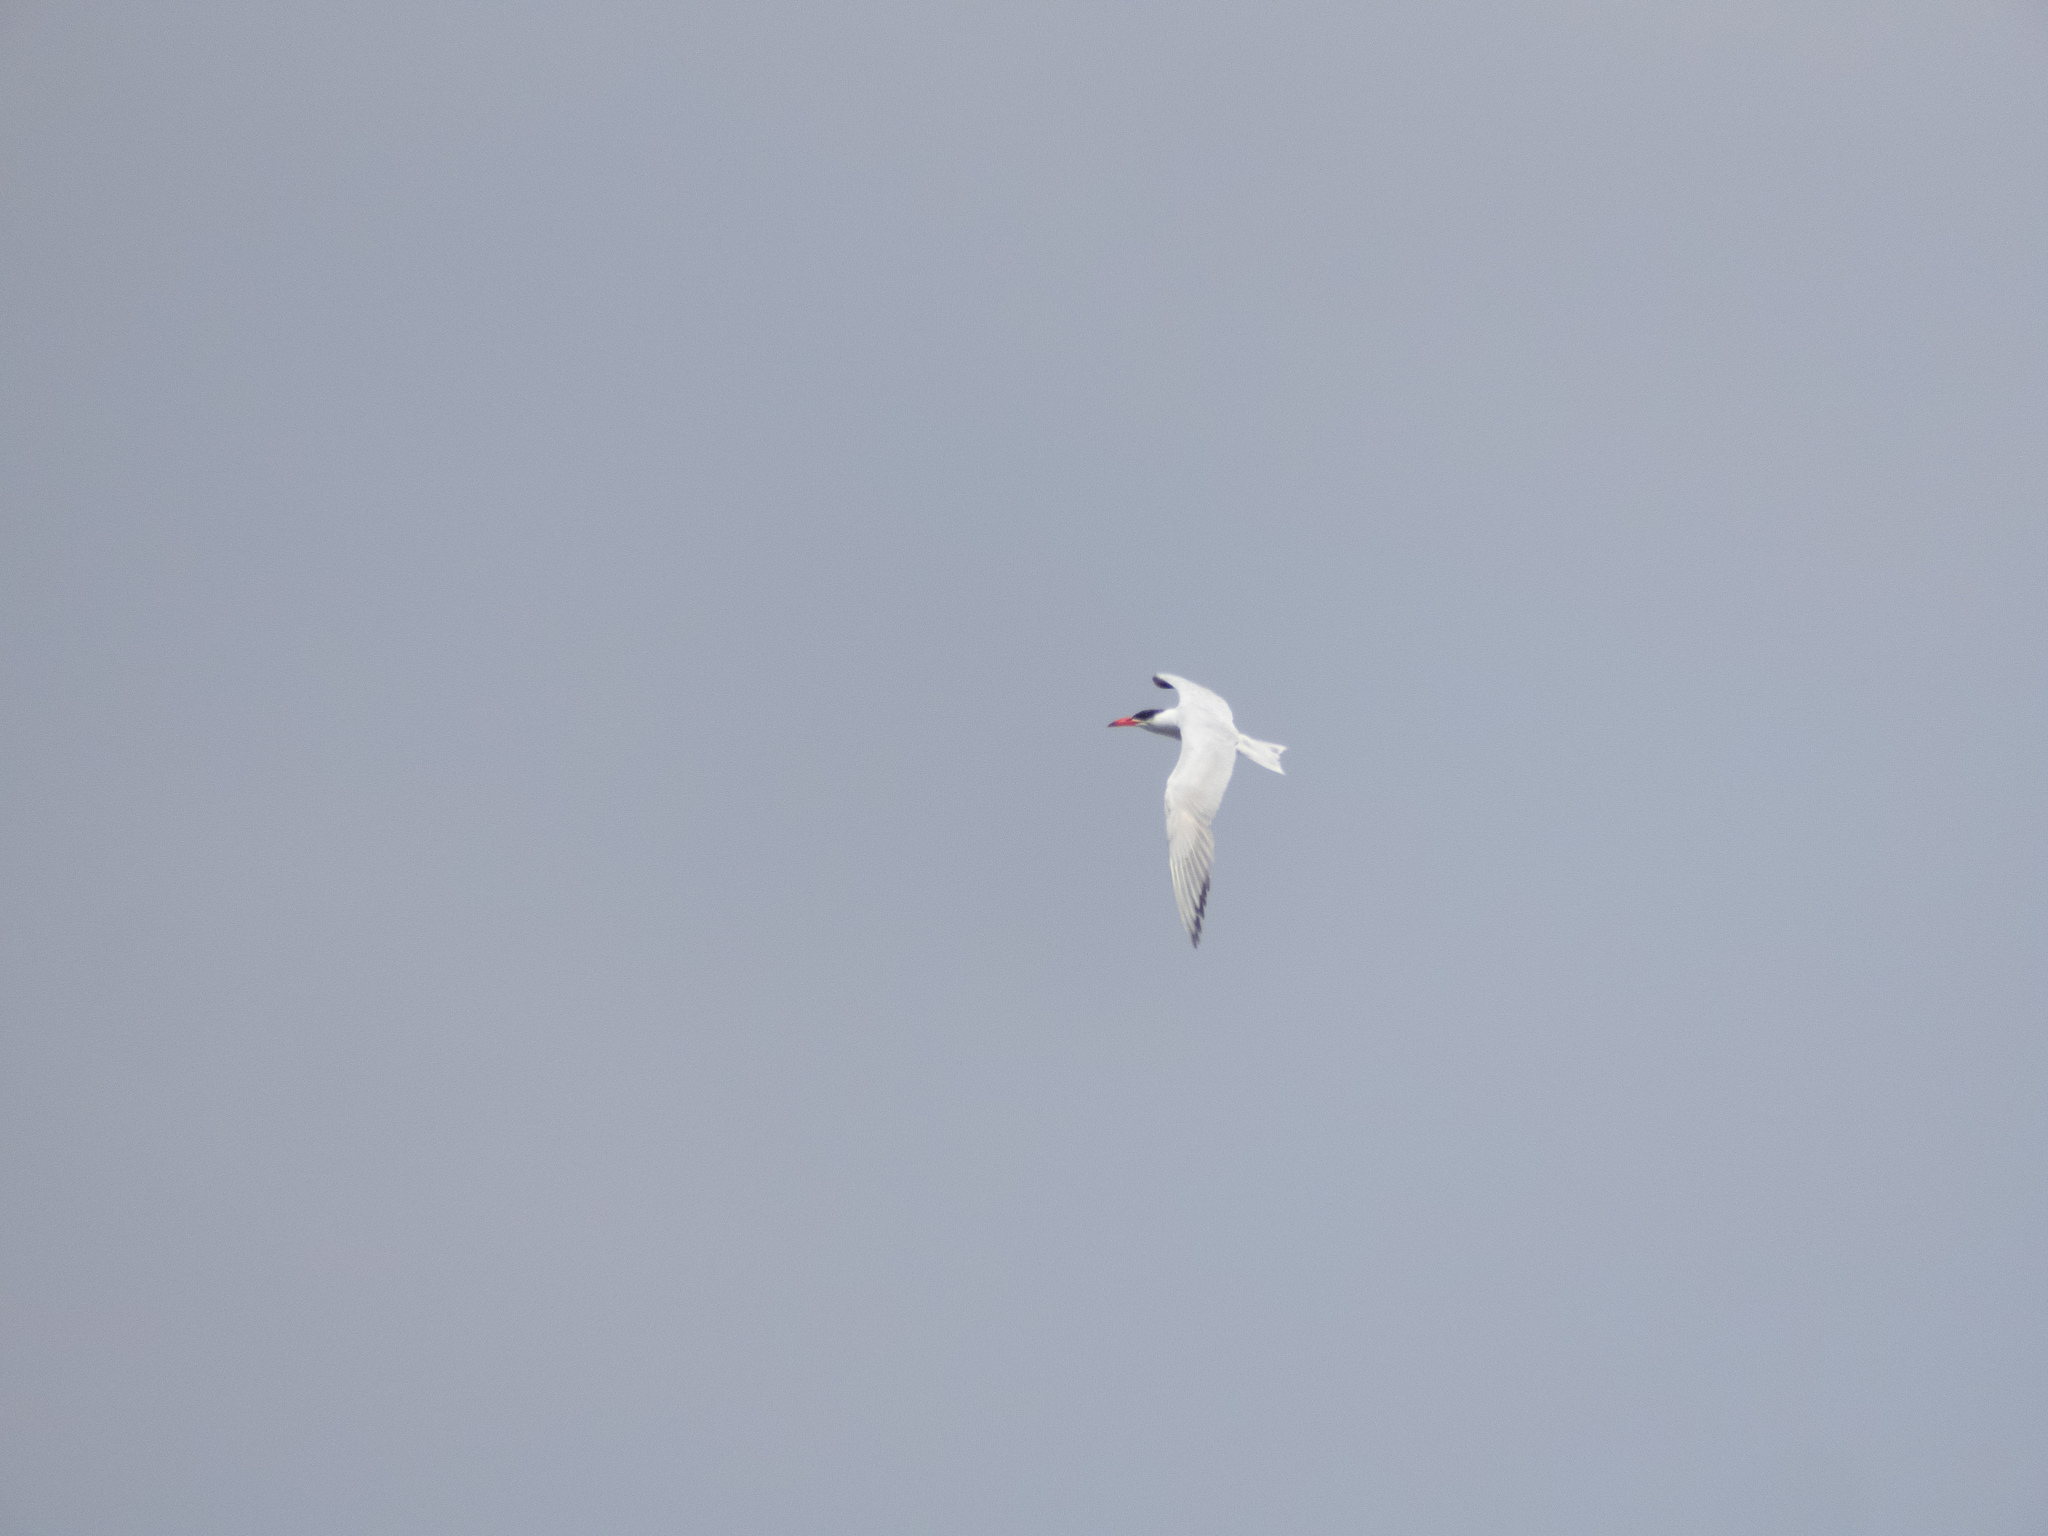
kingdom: Animalia
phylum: Chordata
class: Aves
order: Charadriiformes
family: Laridae
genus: Hydroprogne
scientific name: Hydroprogne caspia
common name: Caspian tern
